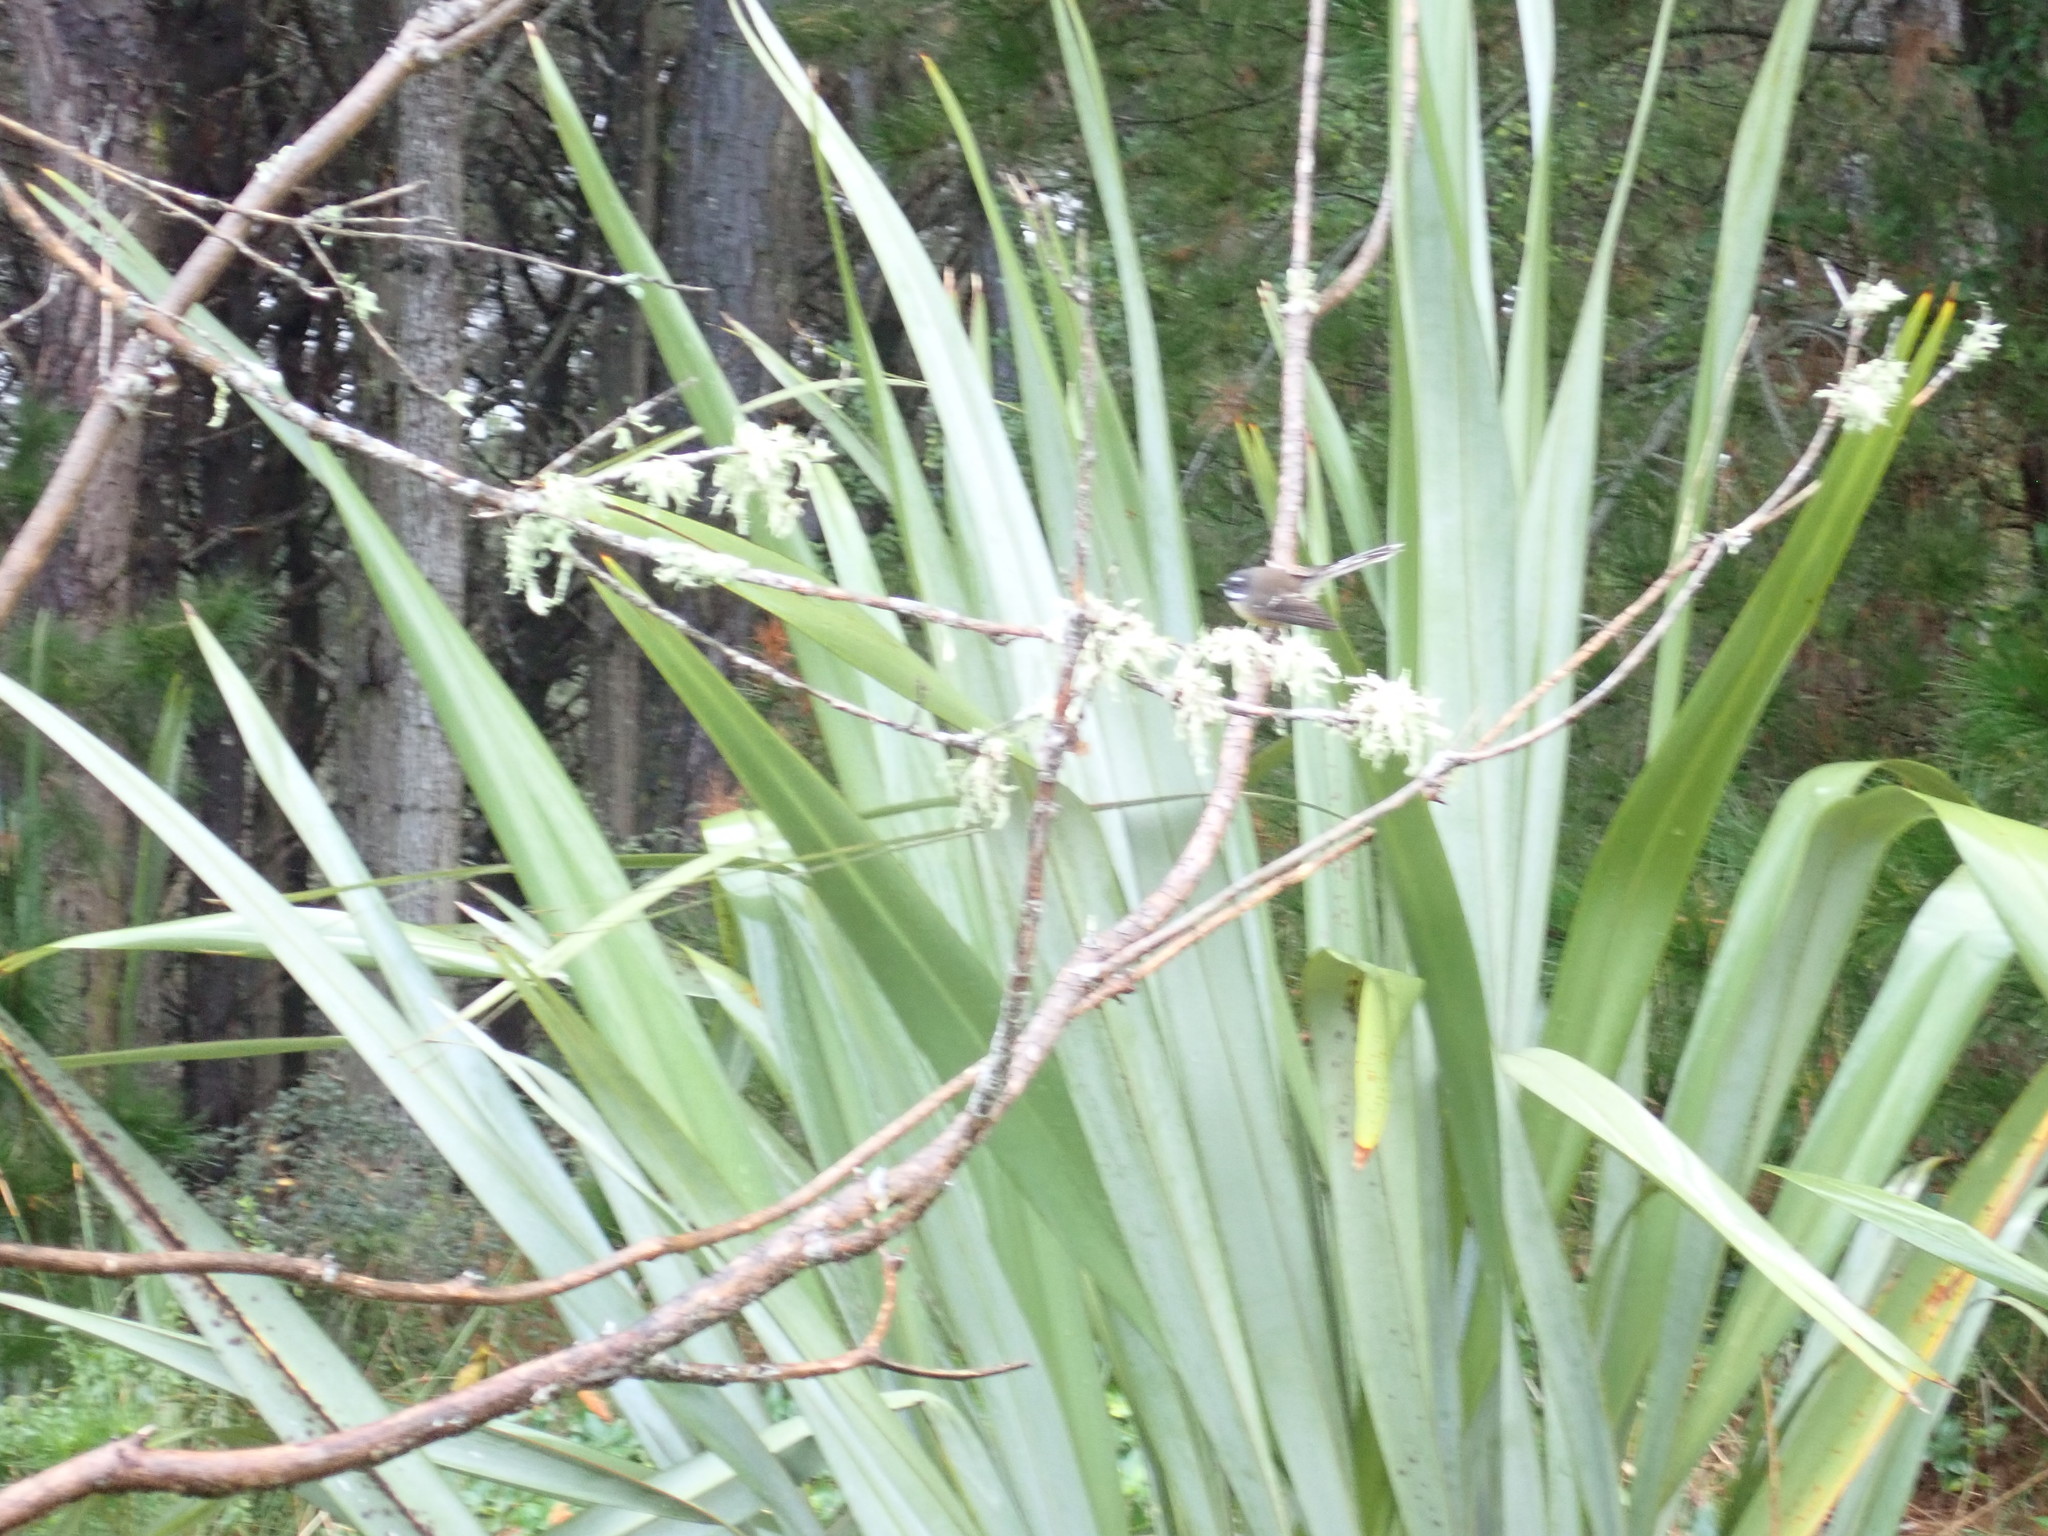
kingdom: Animalia
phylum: Chordata
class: Aves
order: Passeriformes
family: Rhipiduridae
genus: Rhipidura
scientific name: Rhipidura fuliginosa
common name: New zealand fantail
